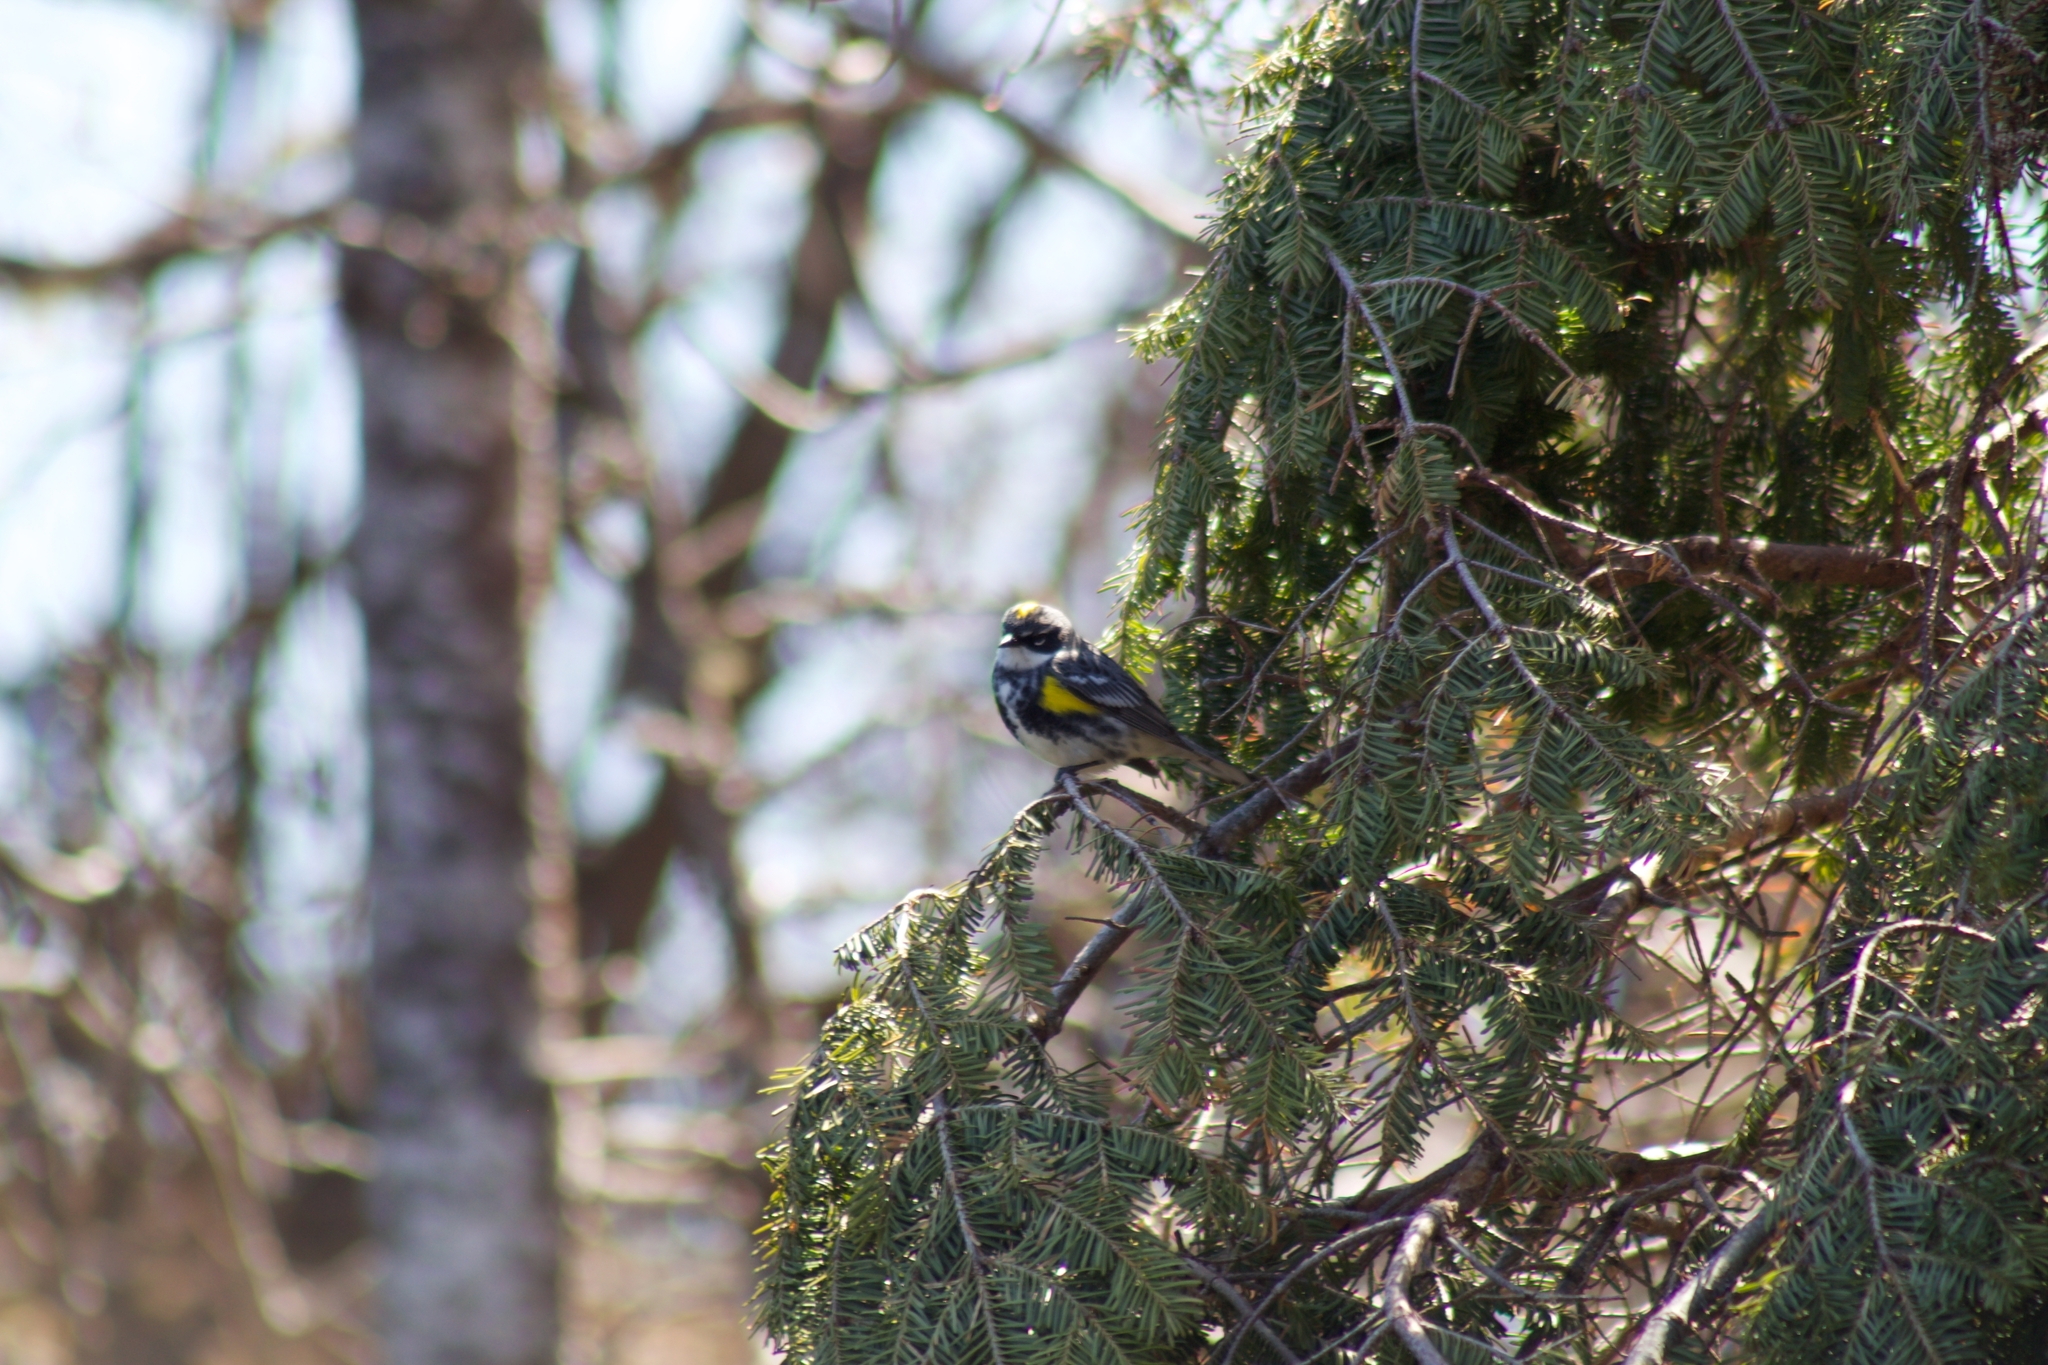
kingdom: Animalia
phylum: Chordata
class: Aves
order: Passeriformes
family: Parulidae
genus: Setophaga
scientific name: Setophaga coronata
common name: Myrtle warbler
